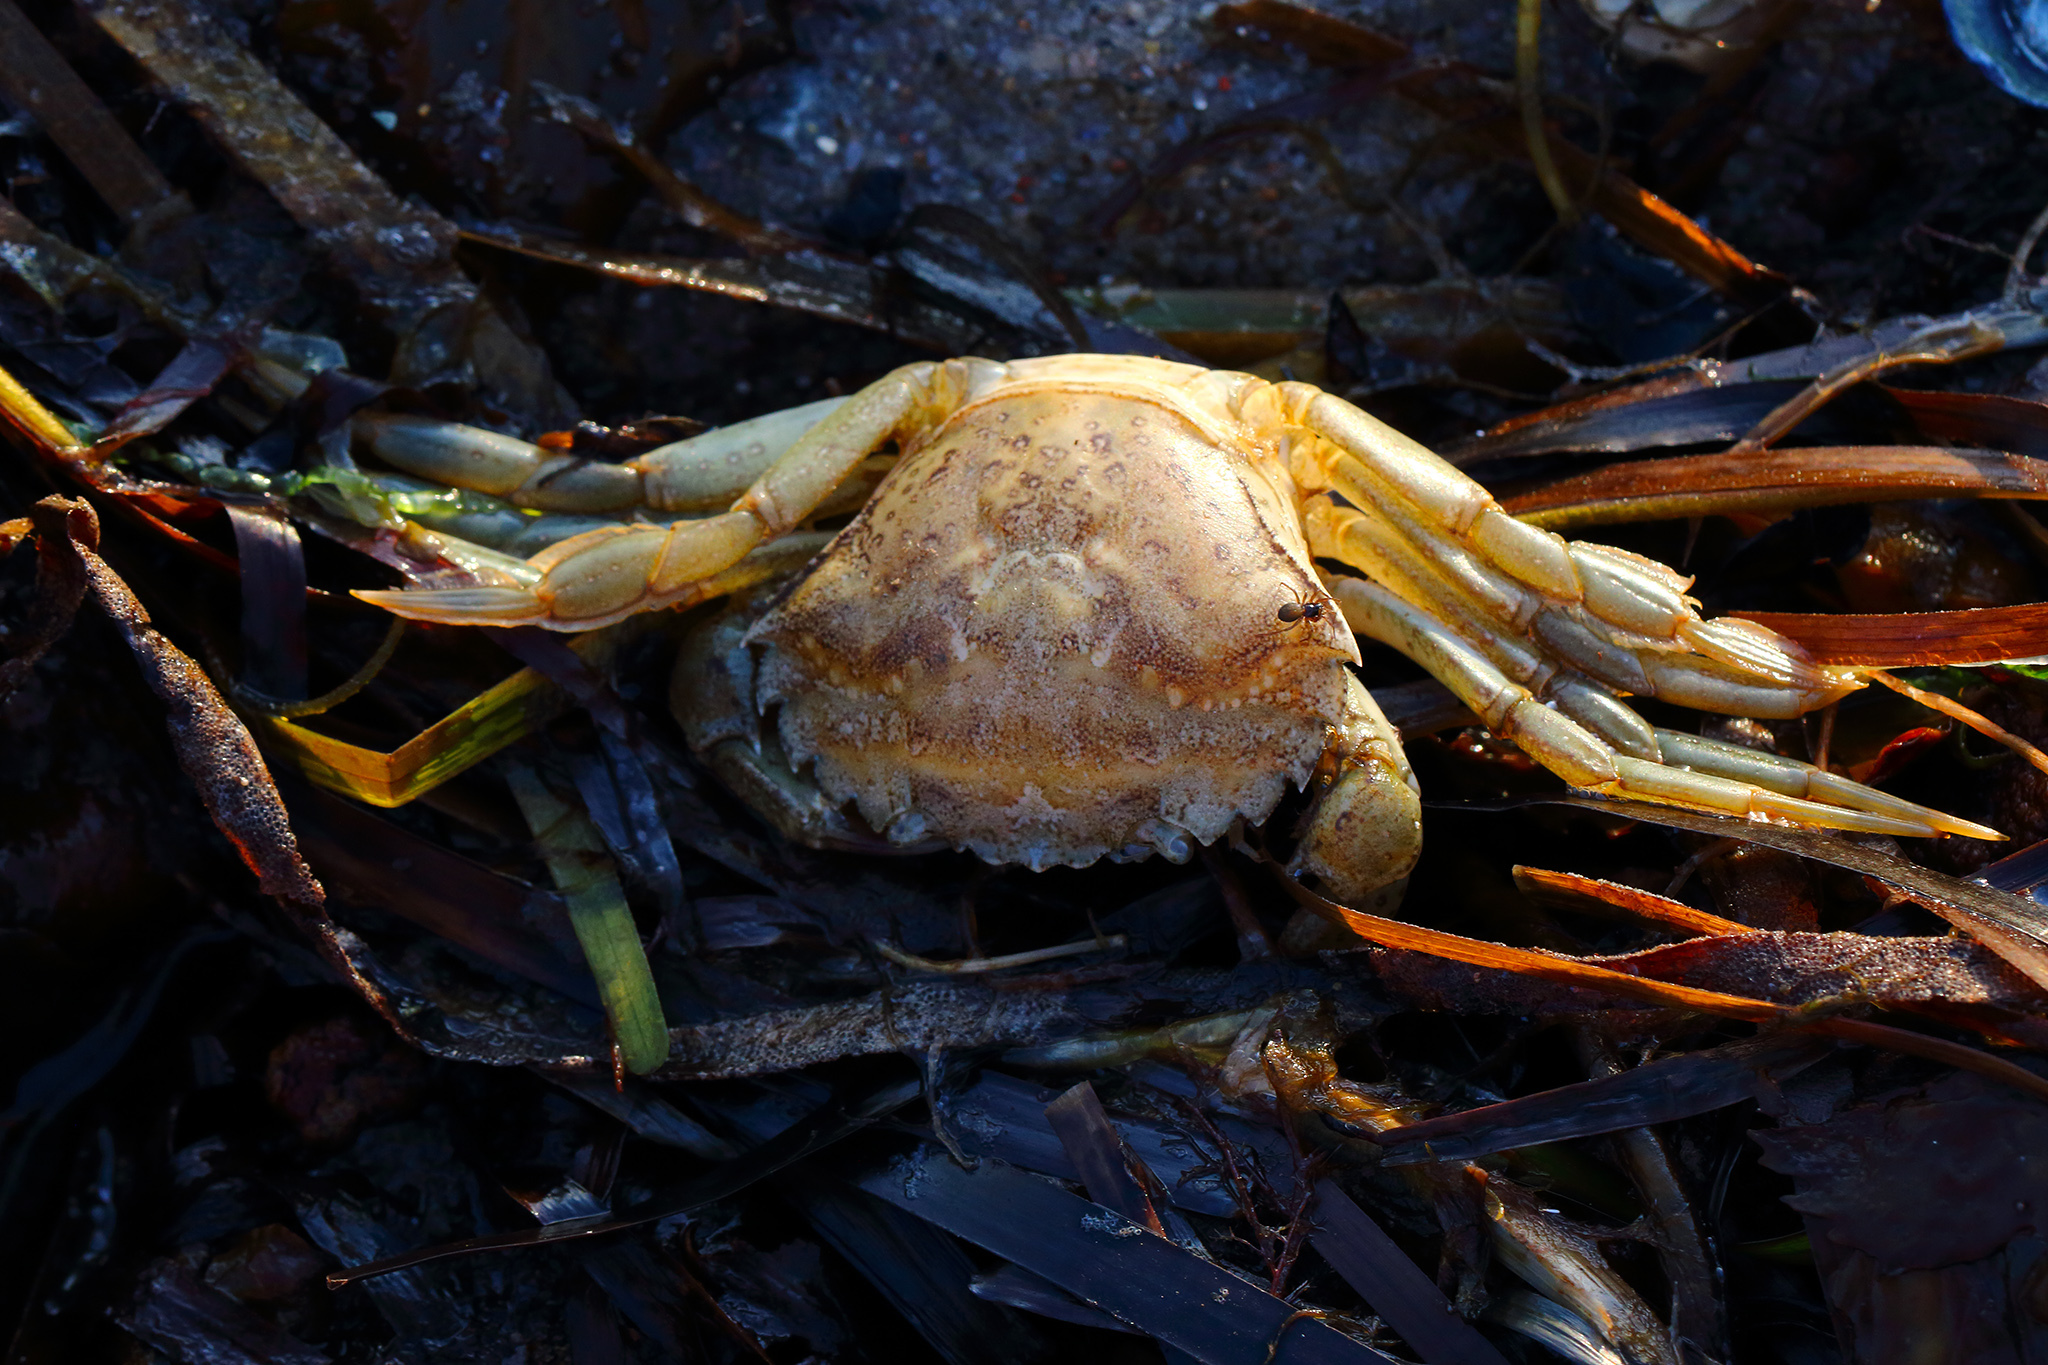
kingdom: Animalia
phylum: Arthropoda
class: Malacostraca
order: Decapoda
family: Carcinidae
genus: Carcinus
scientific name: Carcinus maenas
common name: European green crab
